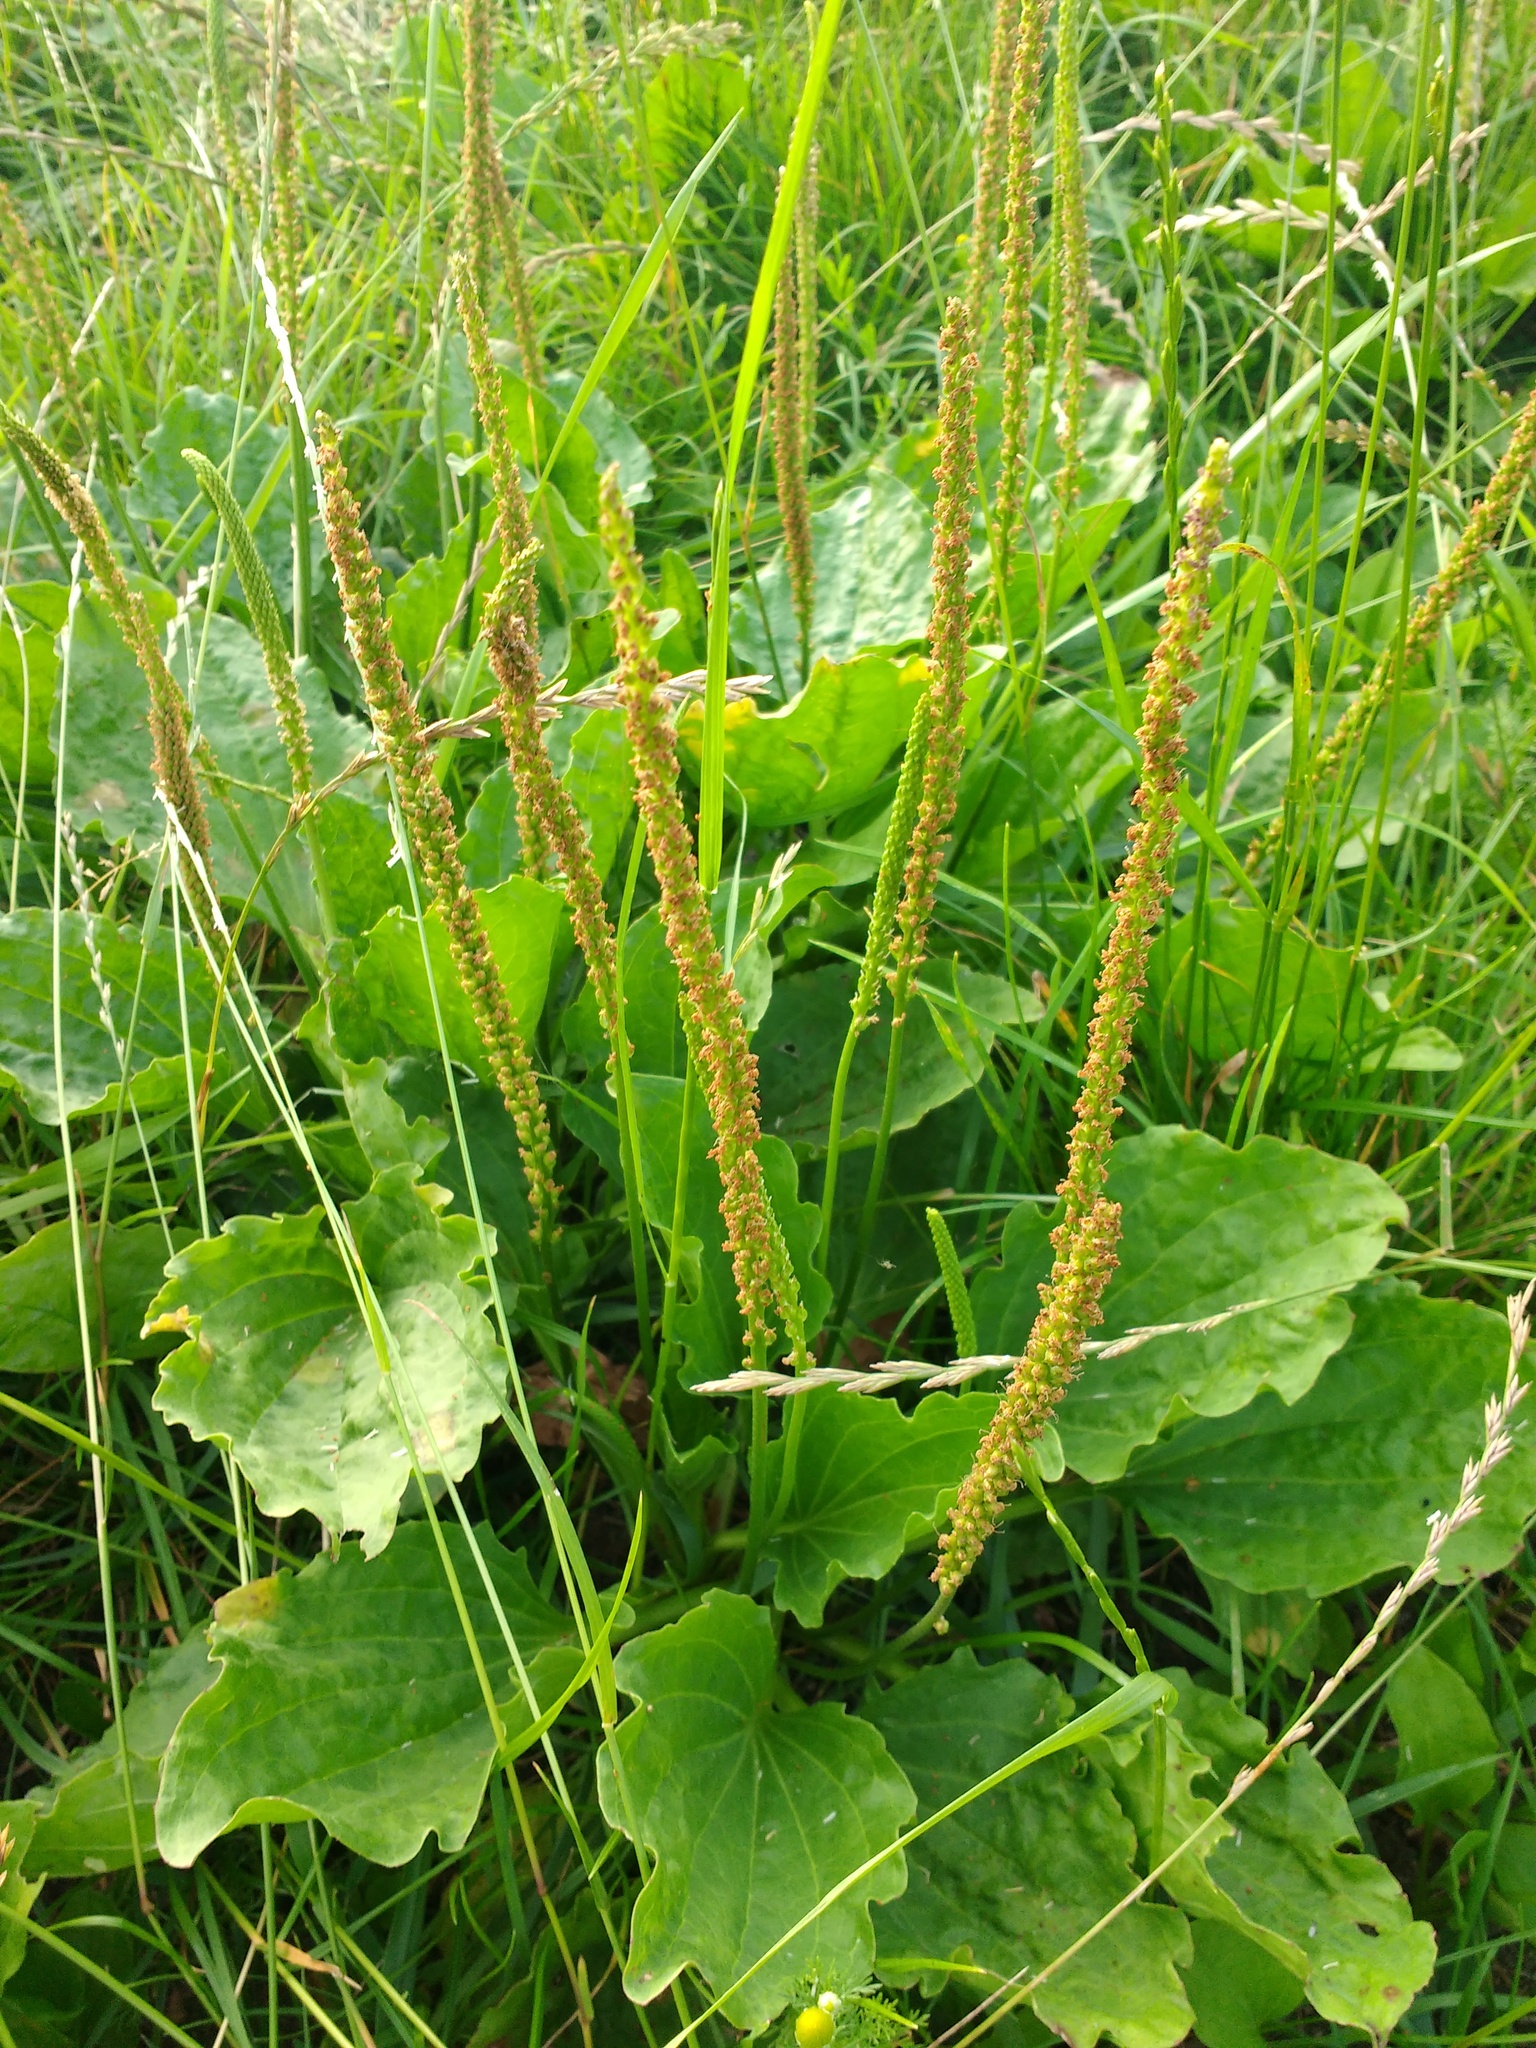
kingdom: Plantae
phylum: Tracheophyta
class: Magnoliopsida
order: Lamiales
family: Plantaginaceae
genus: Plantago
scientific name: Plantago major
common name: Common plantain
